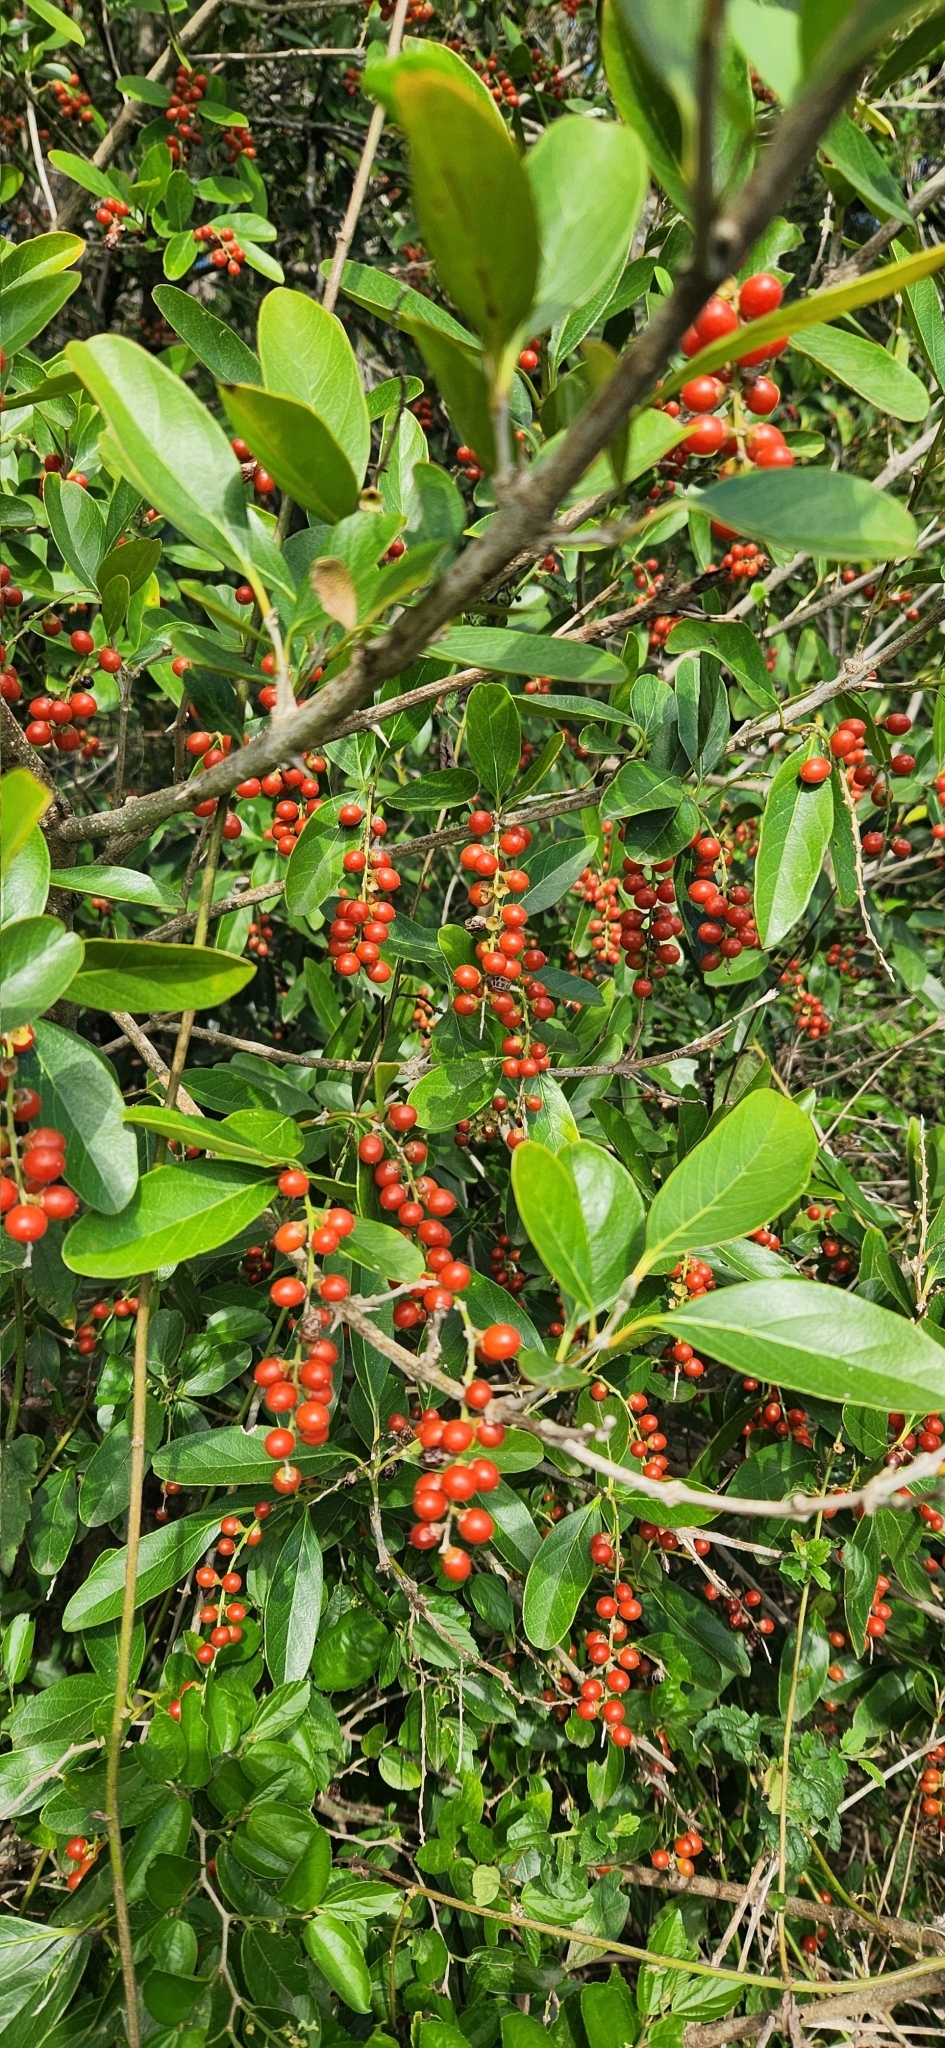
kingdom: Plantae
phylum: Tracheophyta
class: Magnoliopsida
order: Lamiales
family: Verbenaceae
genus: Citharexylum
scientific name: Citharexylum montevidense
